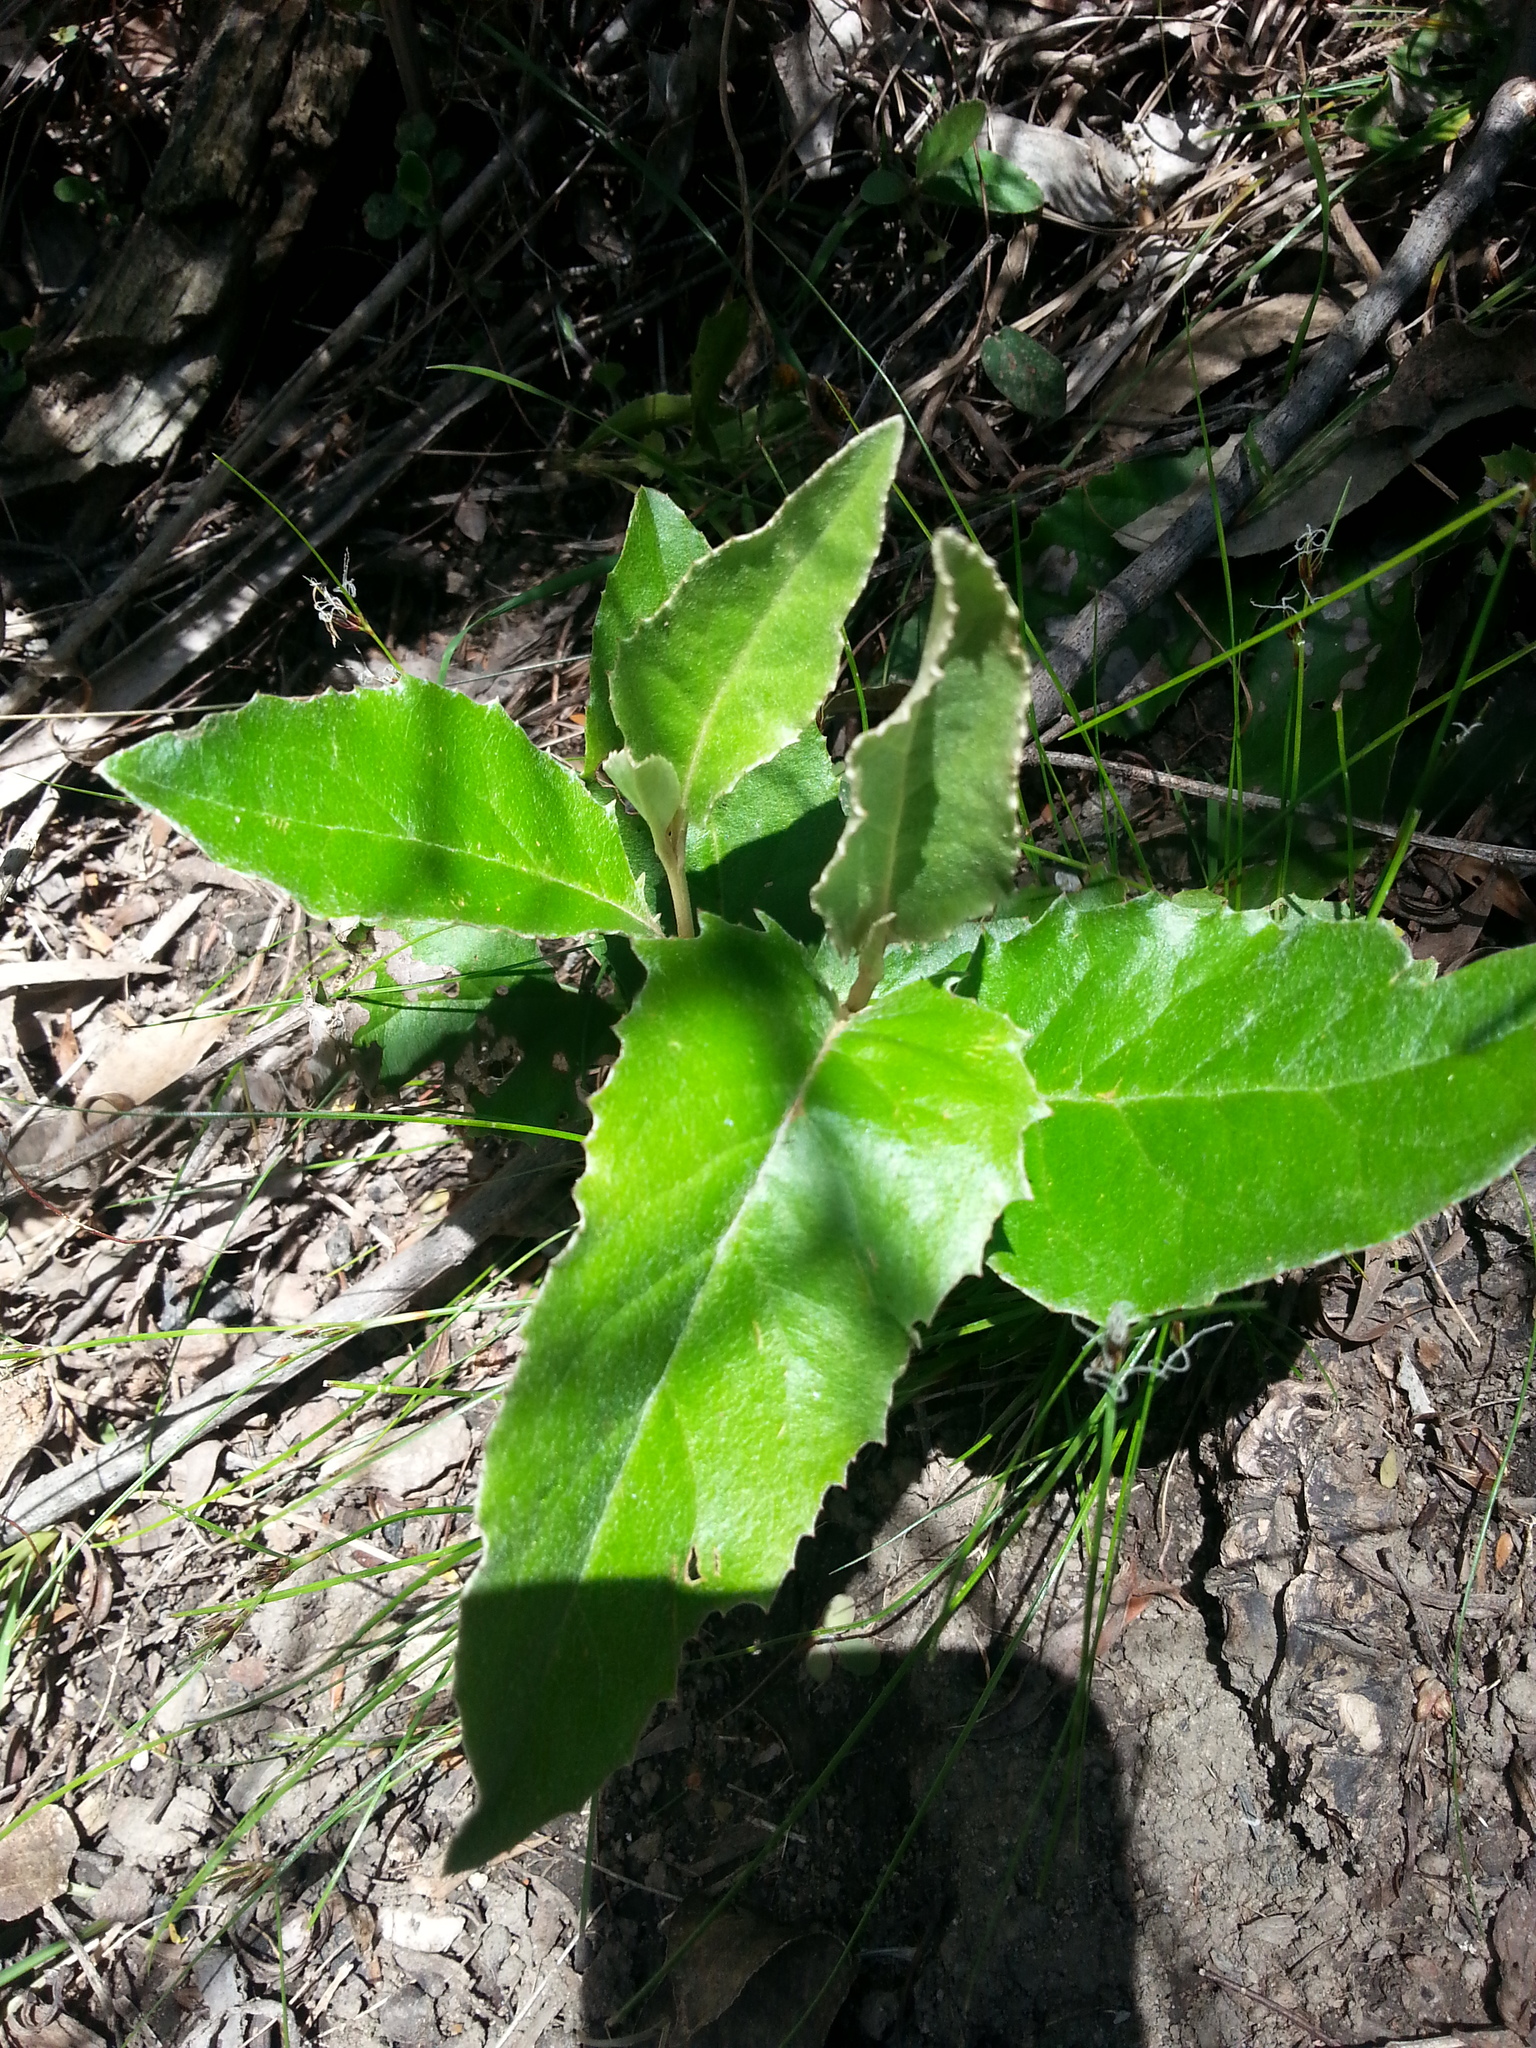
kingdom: Plantae
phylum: Tracheophyta
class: Magnoliopsida
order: Asterales
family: Asteraceae
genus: Olearia
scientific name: Olearia grandiflora
